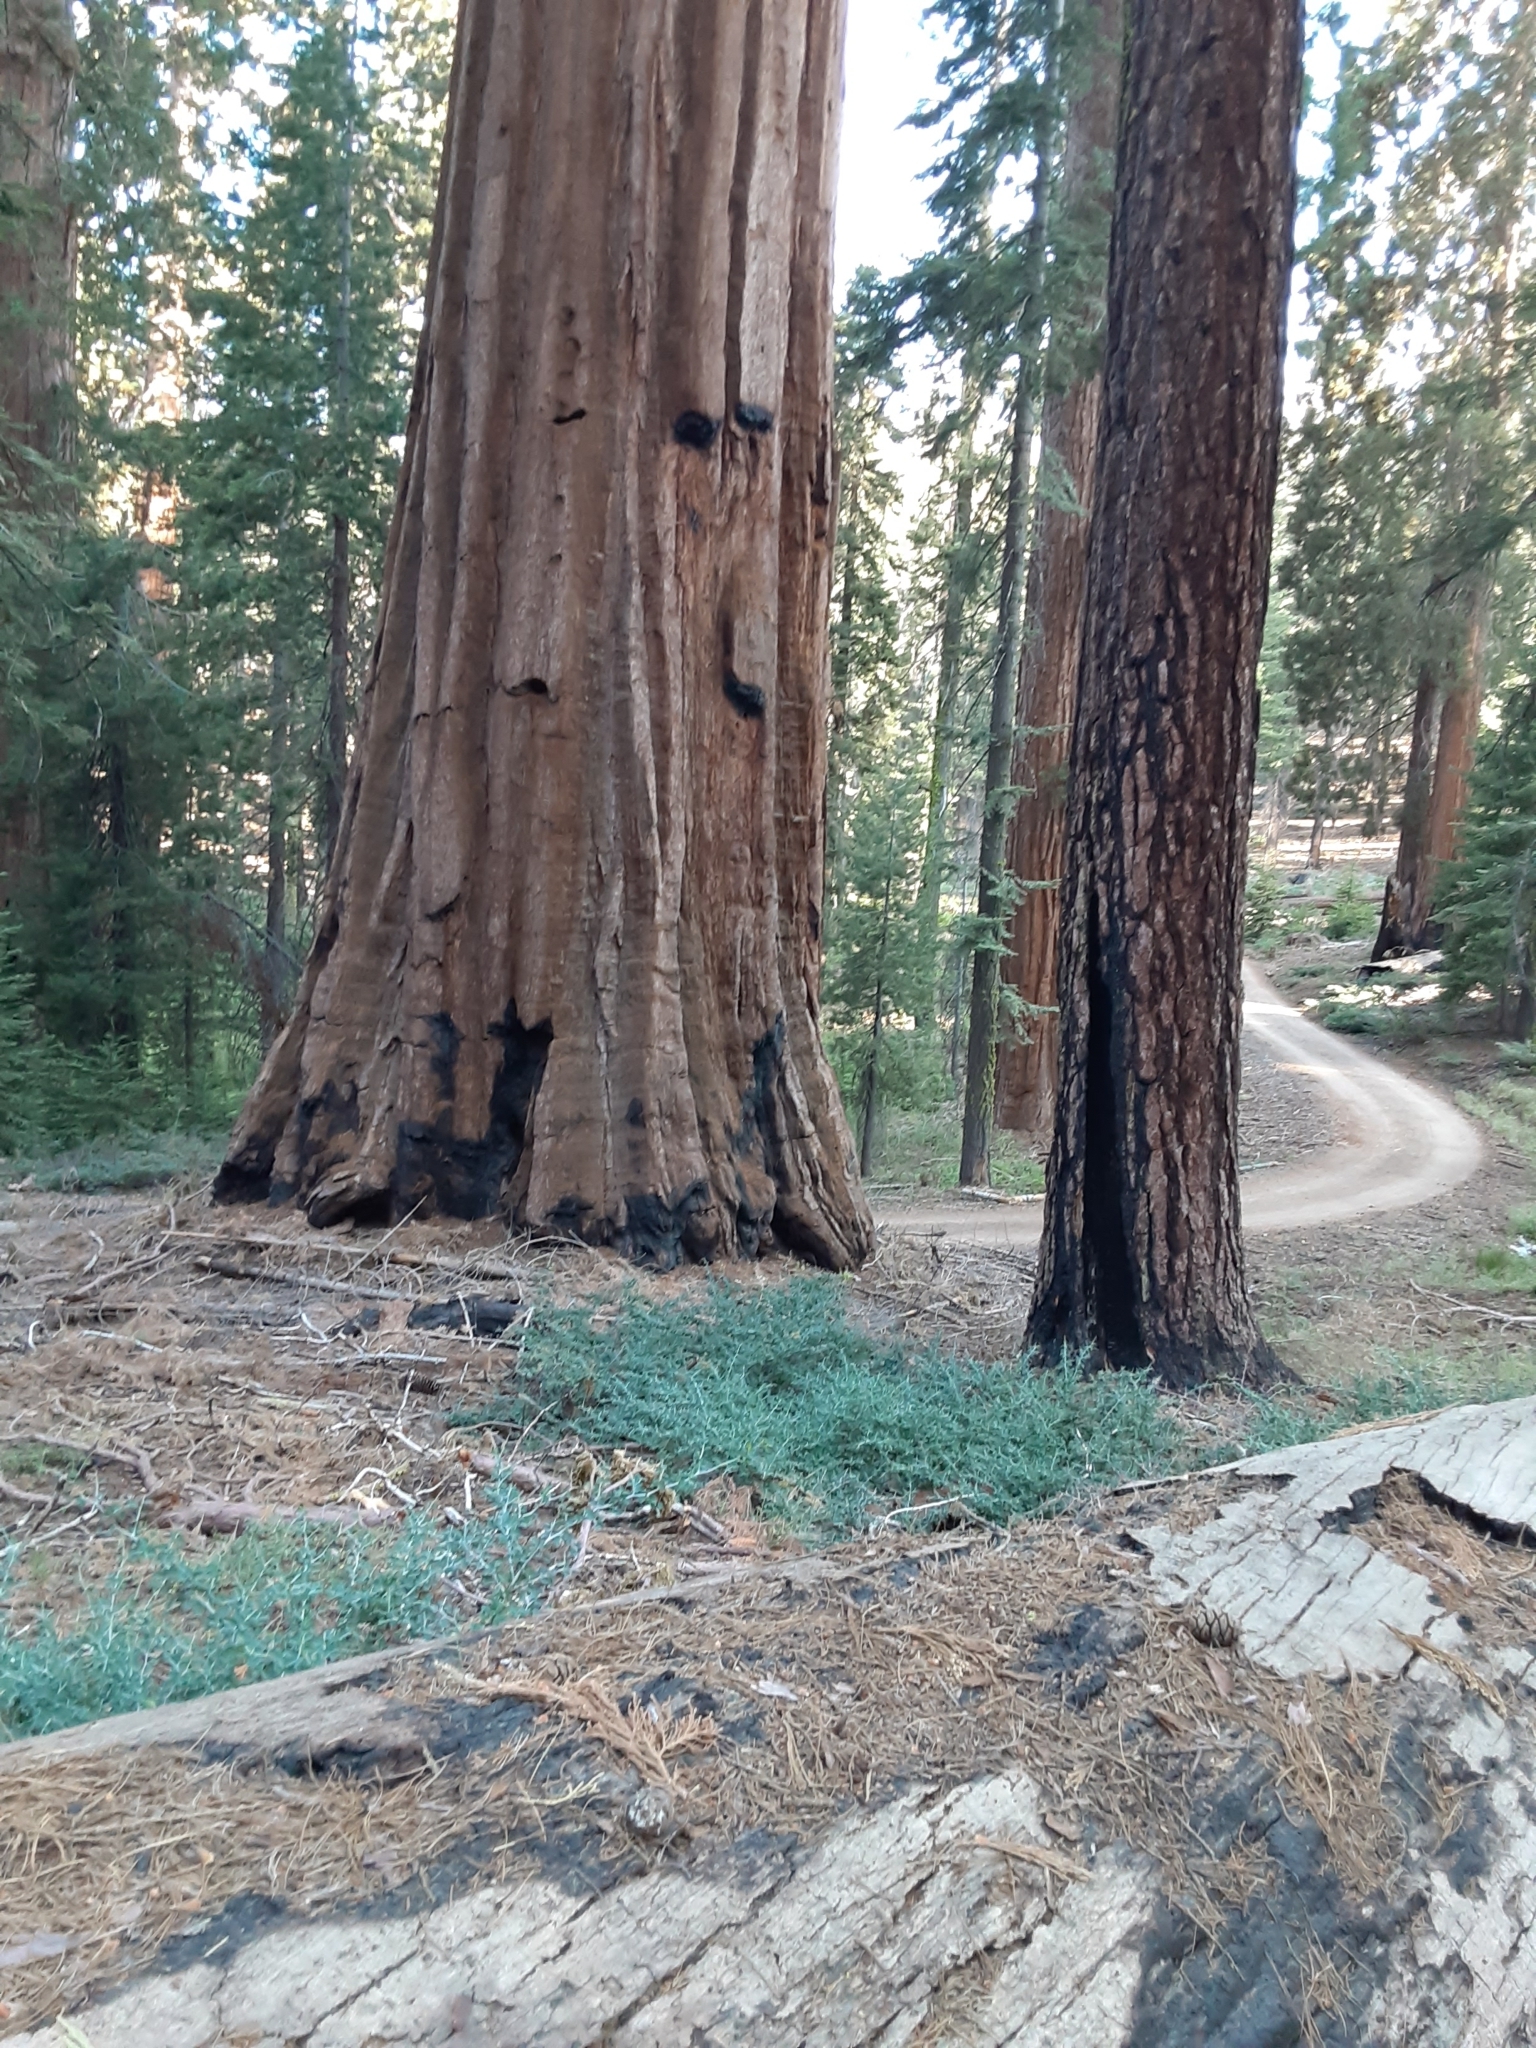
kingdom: Plantae
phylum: Tracheophyta
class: Pinopsida
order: Pinales
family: Cupressaceae
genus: Sequoiadendron
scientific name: Sequoiadendron giganteum
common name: Wellingtonia
